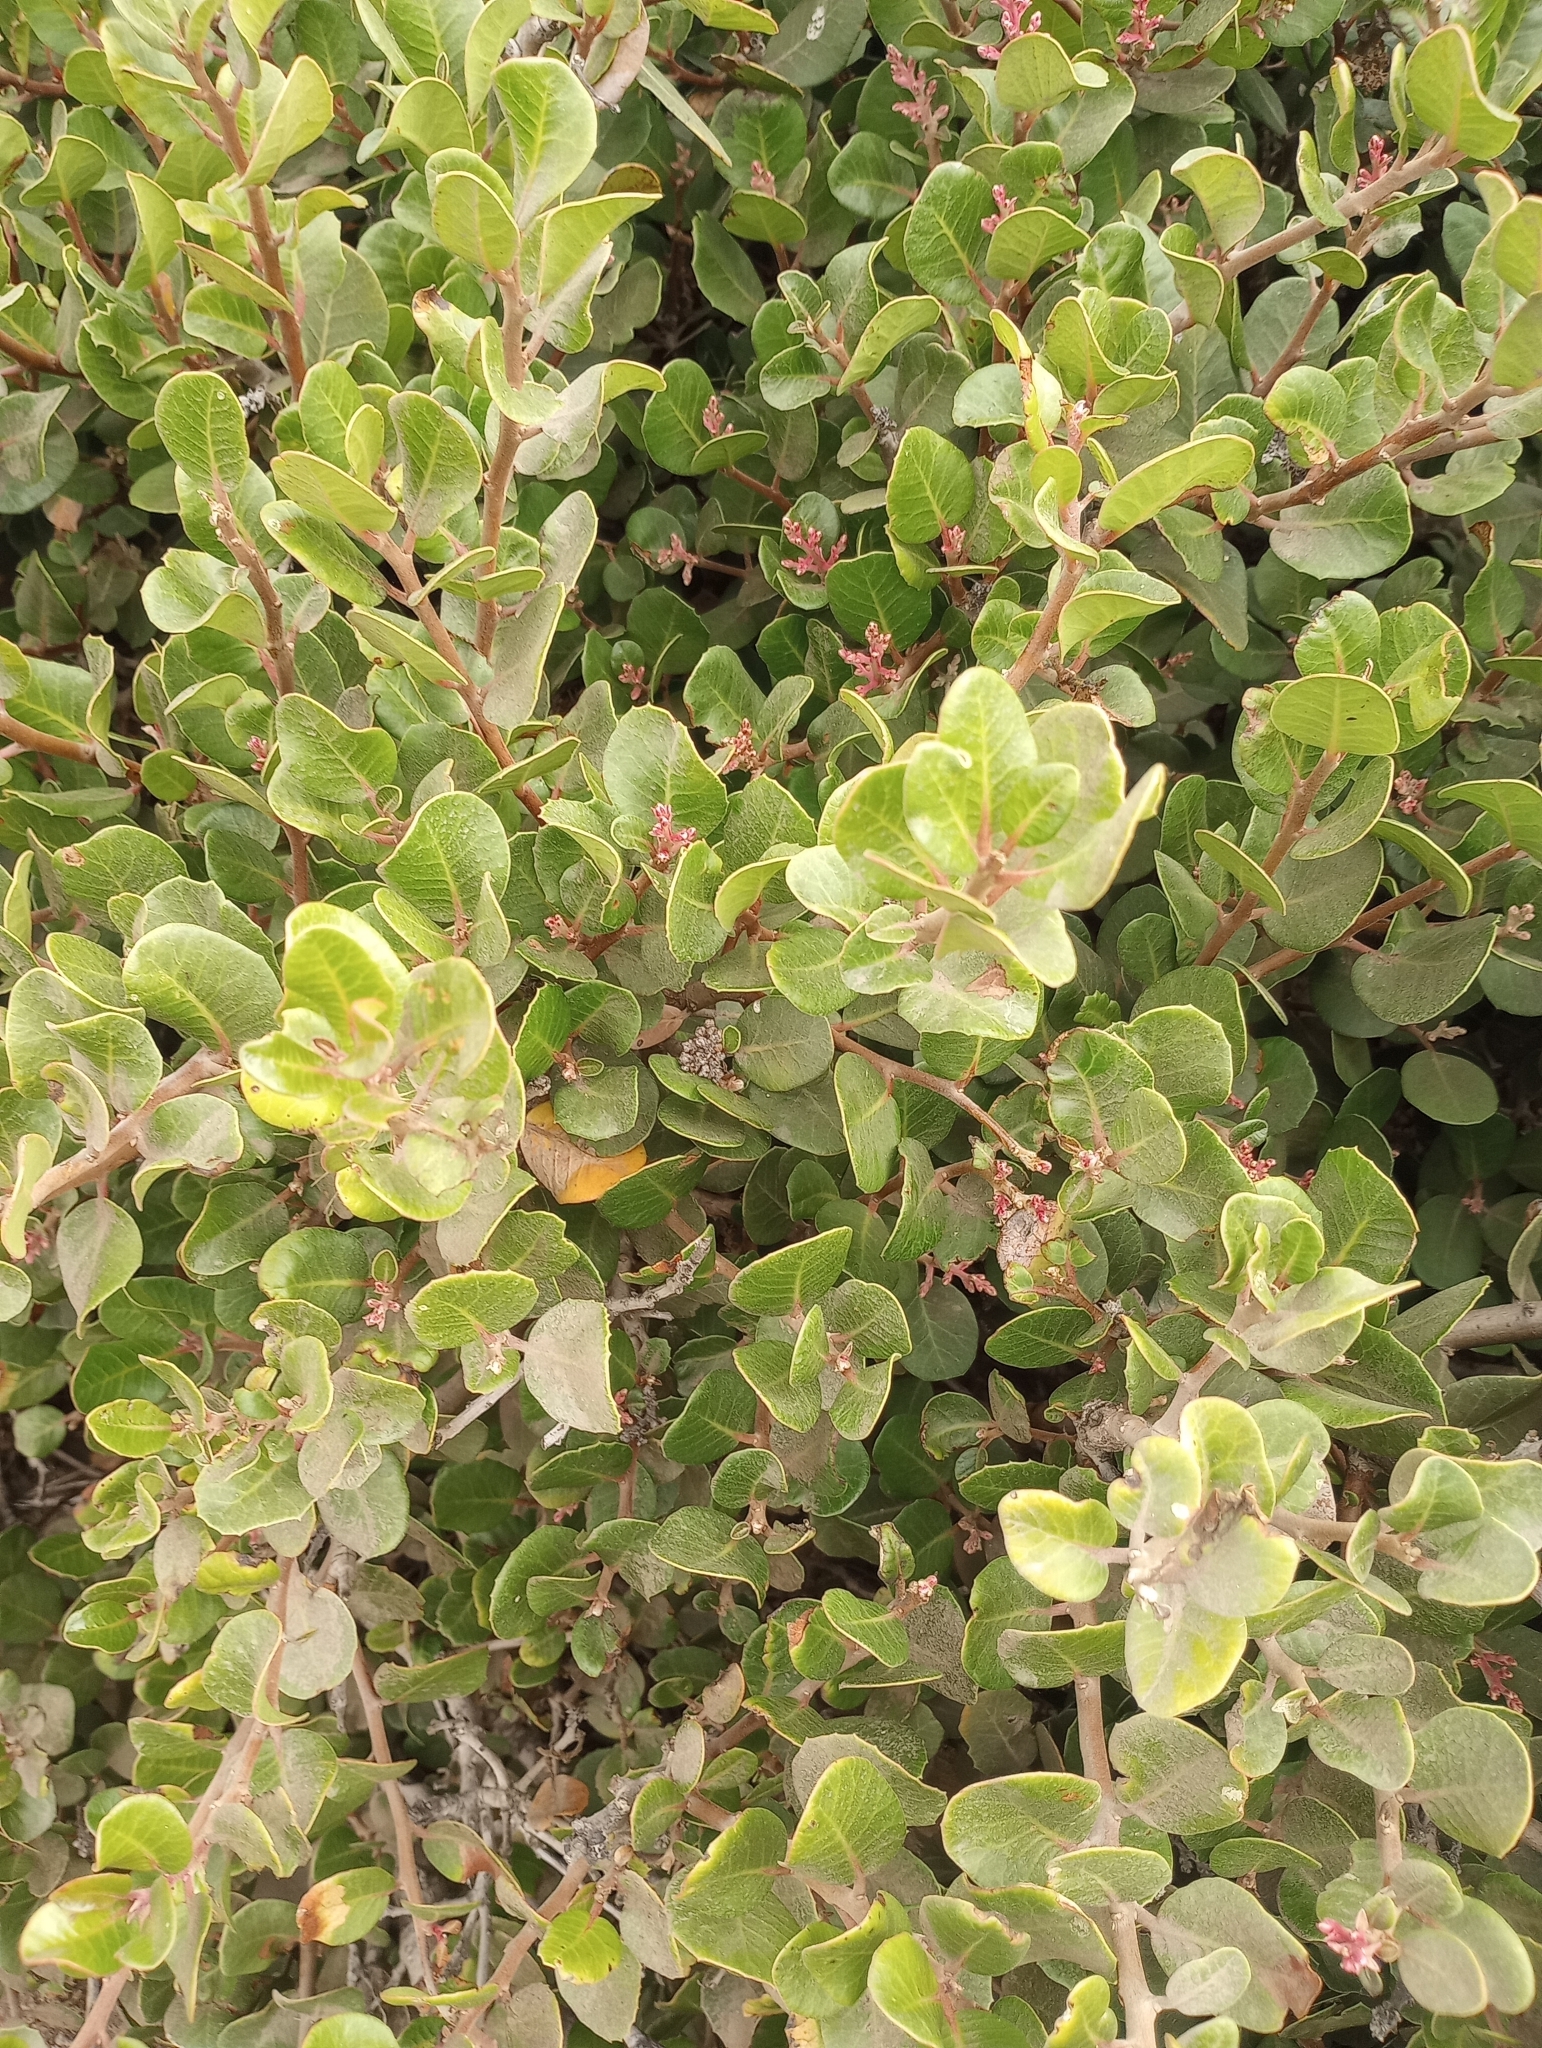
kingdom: Plantae
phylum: Tracheophyta
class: Magnoliopsida
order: Sapindales
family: Anacardiaceae
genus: Rhus
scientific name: Rhus integrifolia
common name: Lemonade sumac
